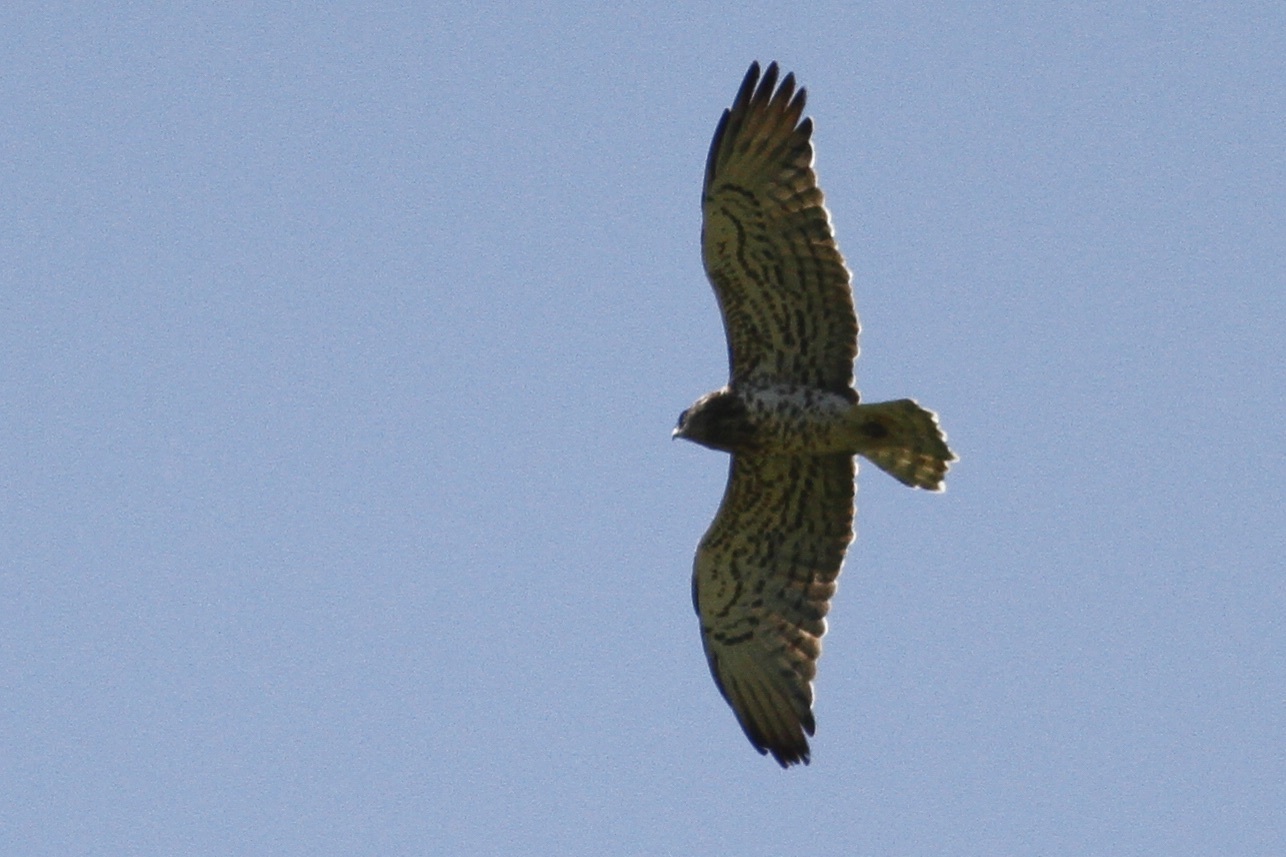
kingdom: Animalia
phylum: Chordata
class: Aves
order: Accipitriformes
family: Accipitridae
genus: Circaetus
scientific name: Circaetus gallicus
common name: Short-toed snake eagle
